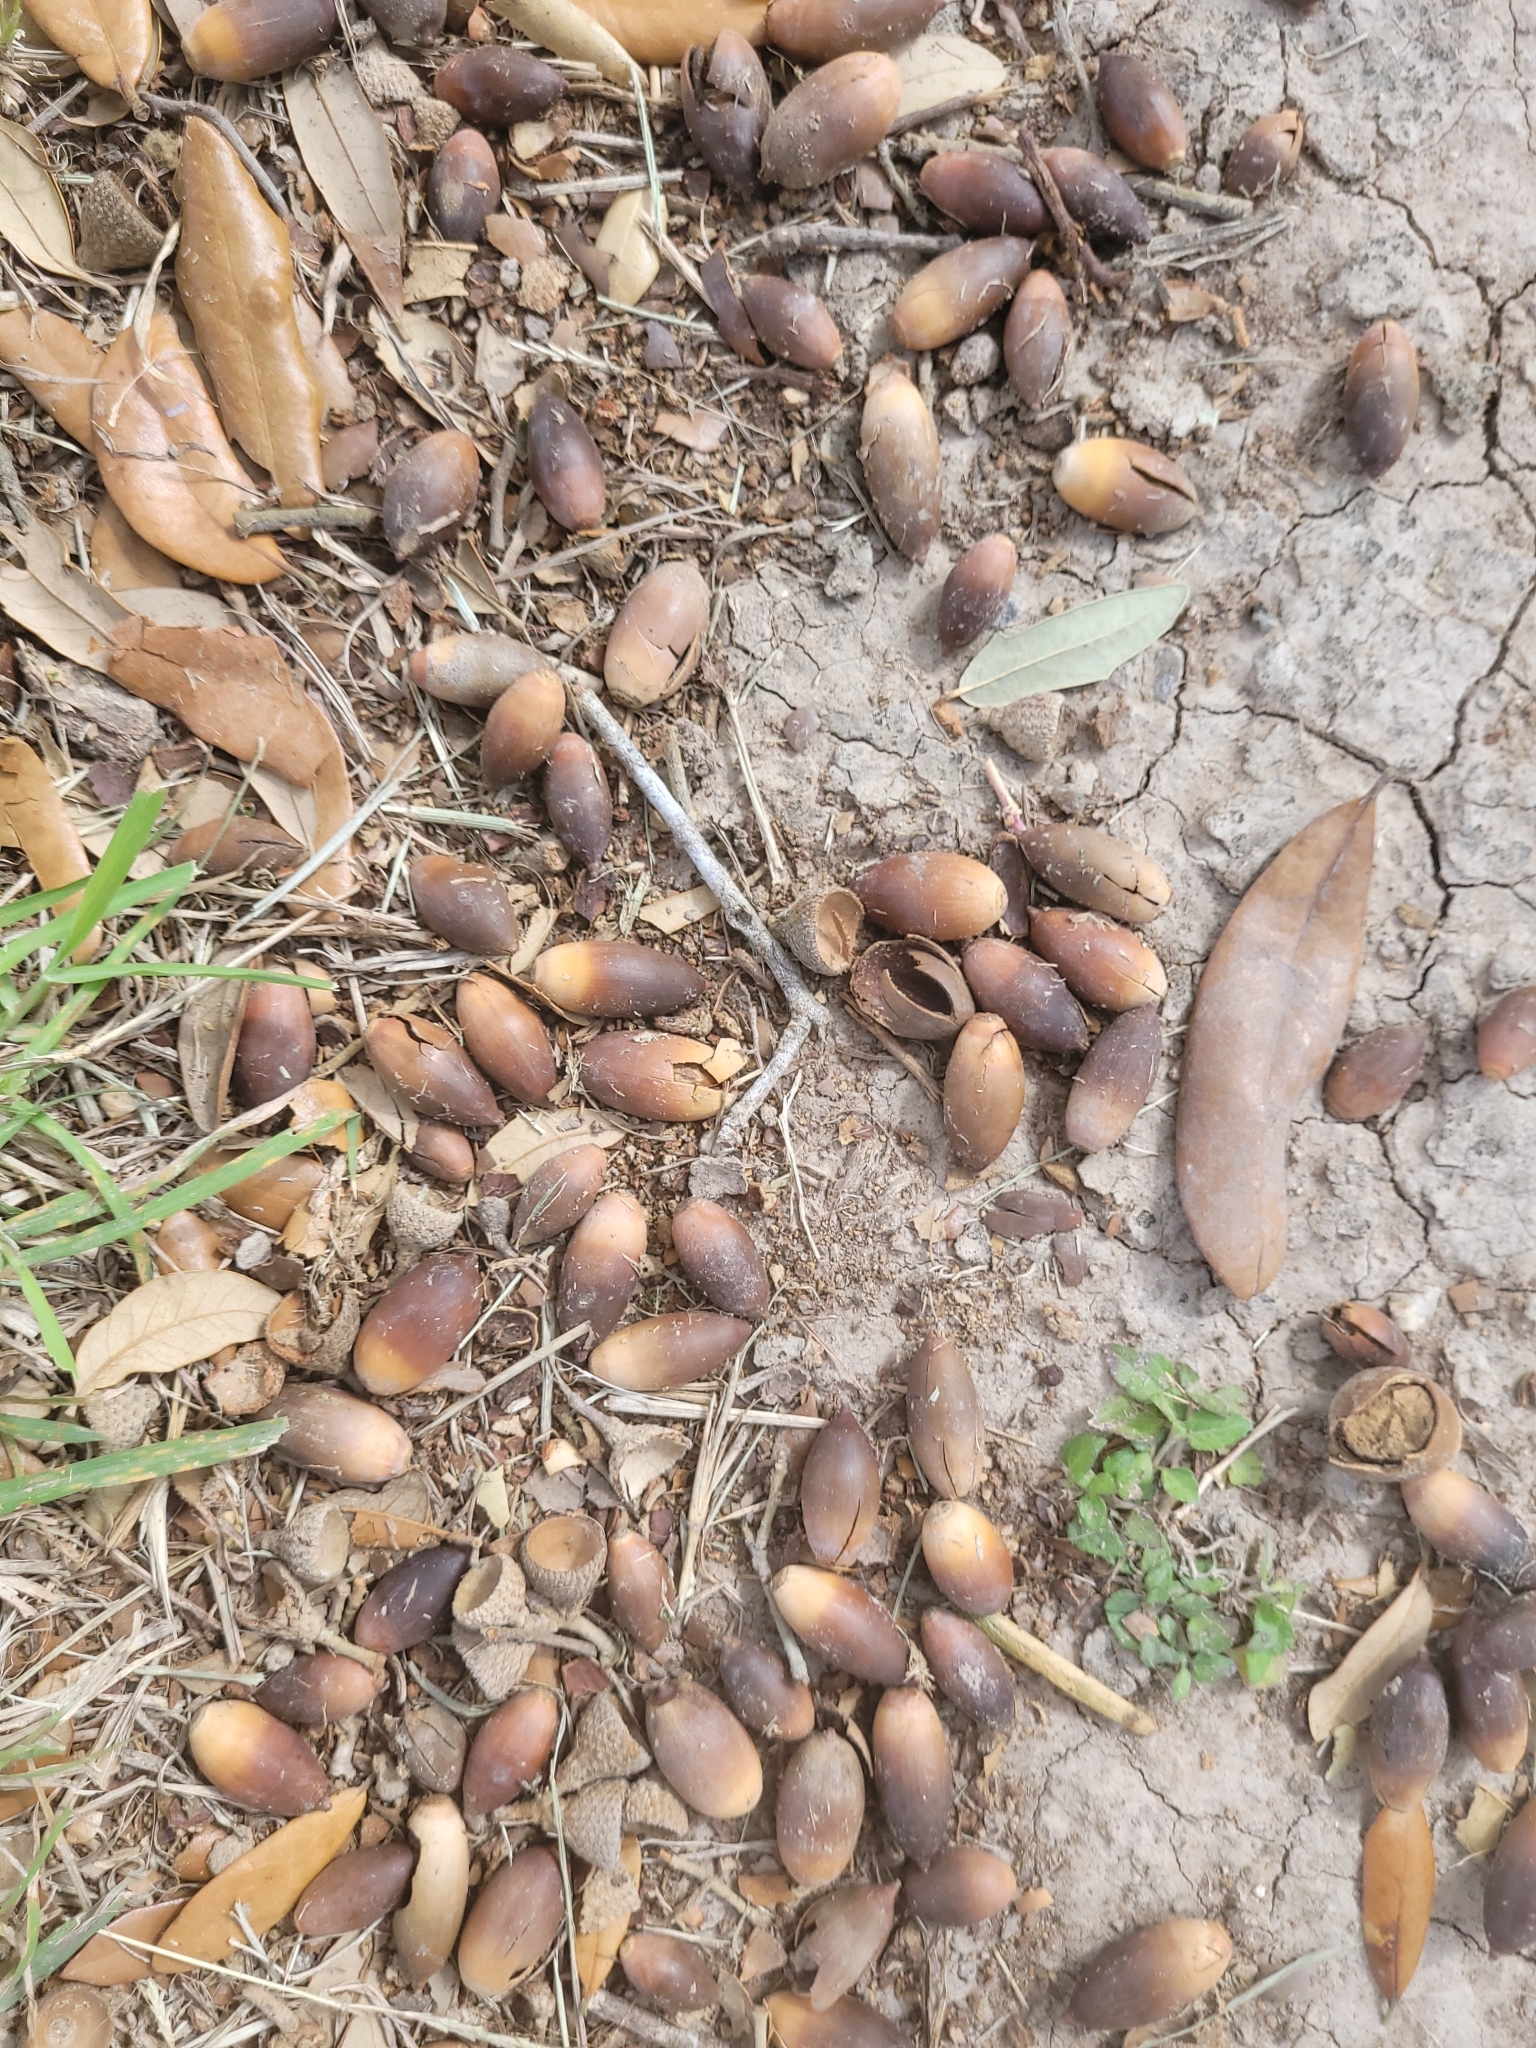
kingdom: Plantae
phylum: Tracheophyta
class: Magnoliopsida
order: Fagales
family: Fagaceae
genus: Quercus
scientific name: Quercus fusiformis
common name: Texas live oak
